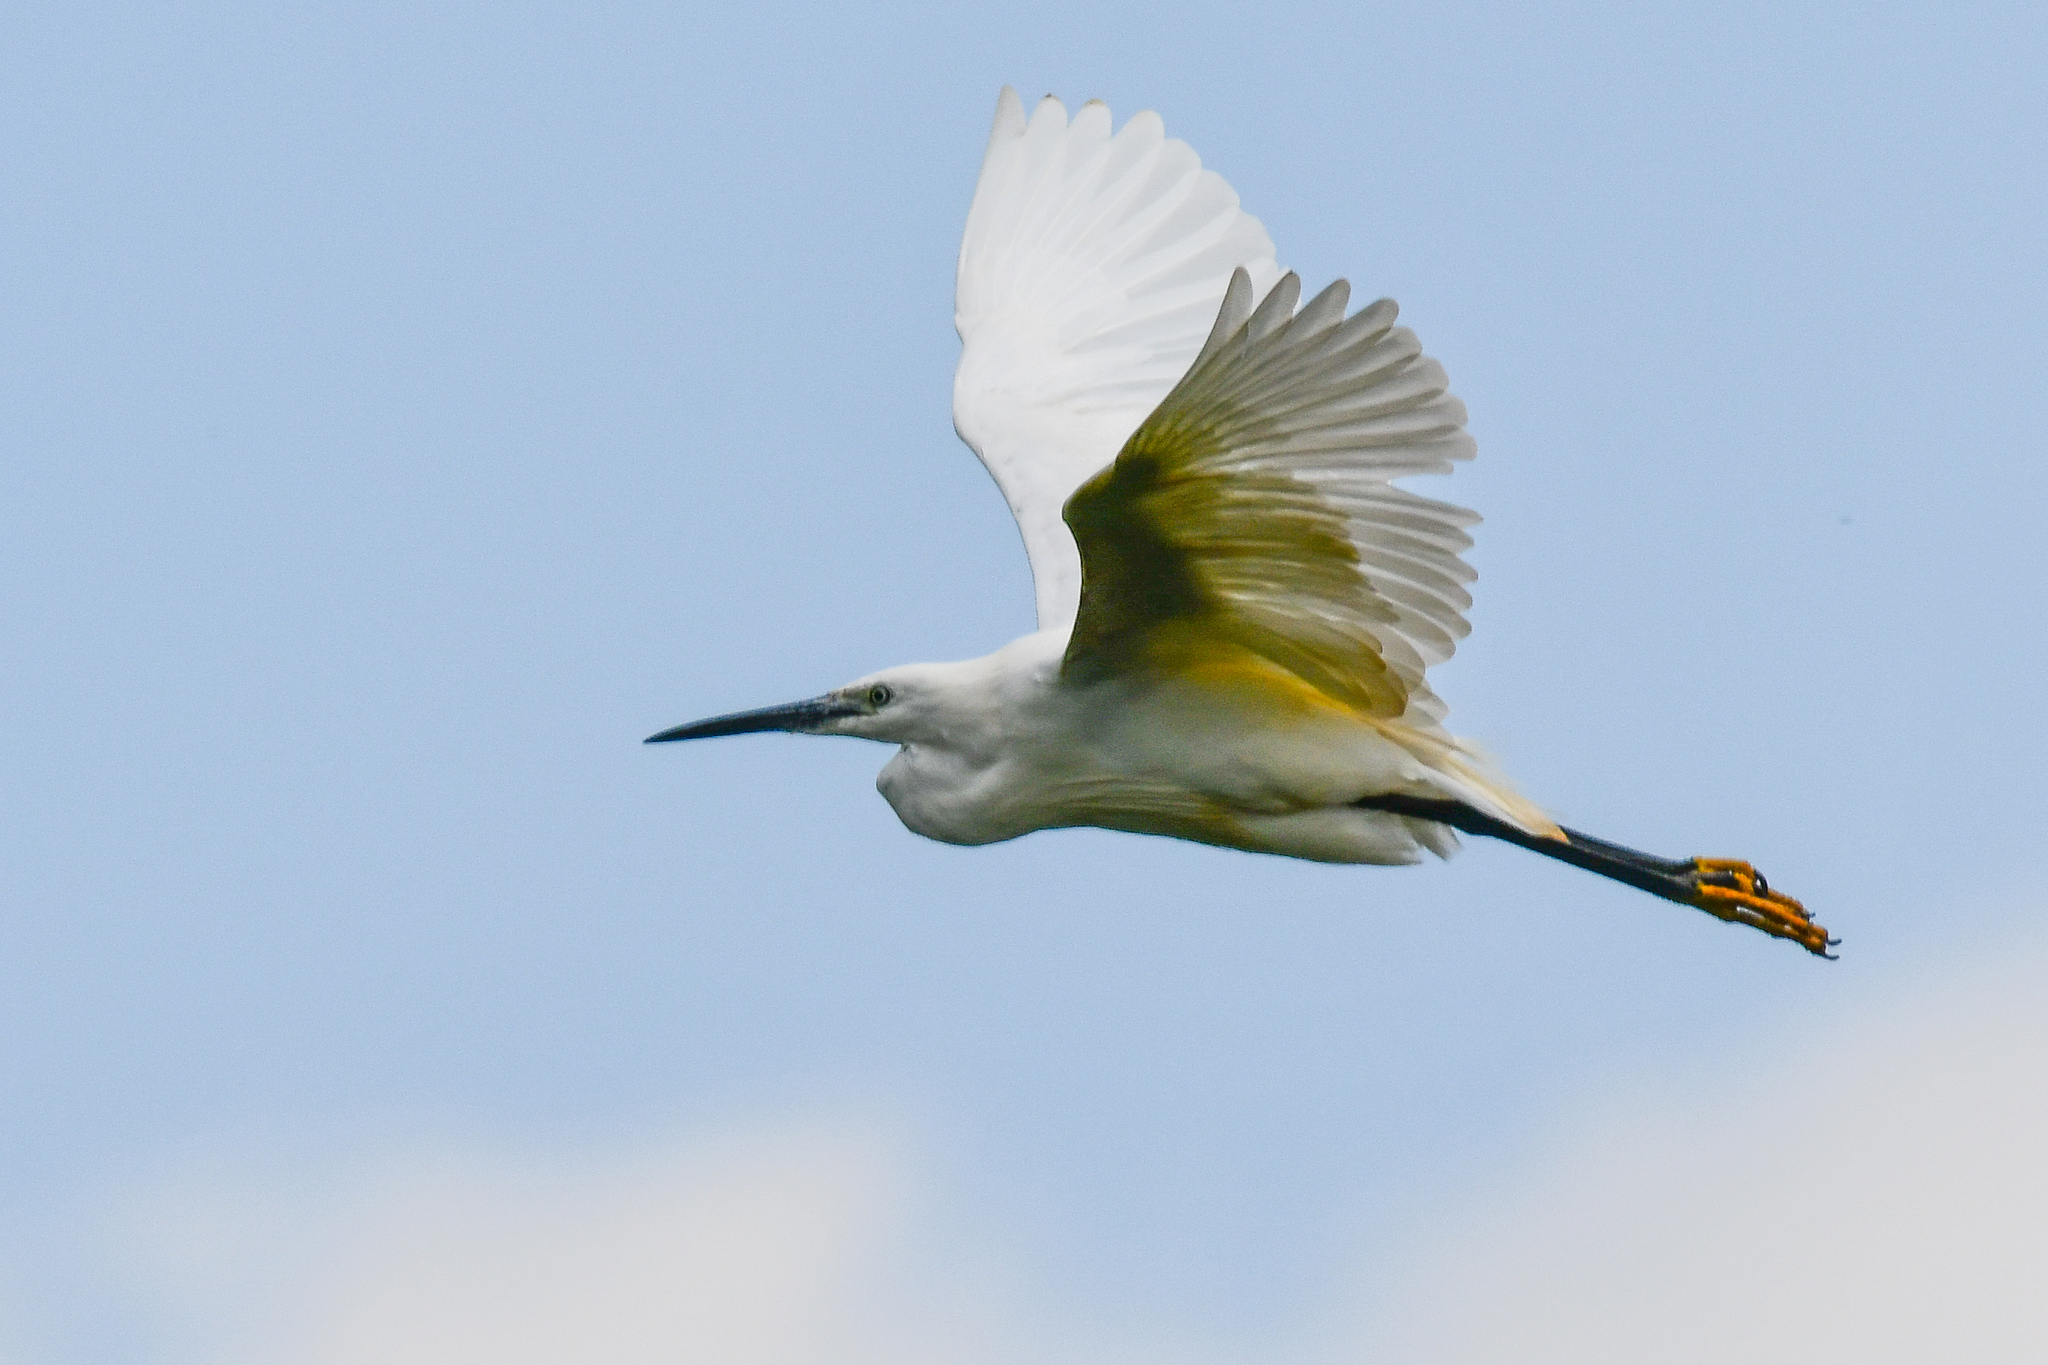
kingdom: Animalia
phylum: Chordata
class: Aves
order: Pelecaniformes
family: Ardeidae
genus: Egretta
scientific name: Egretta garzetta
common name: Little egret
